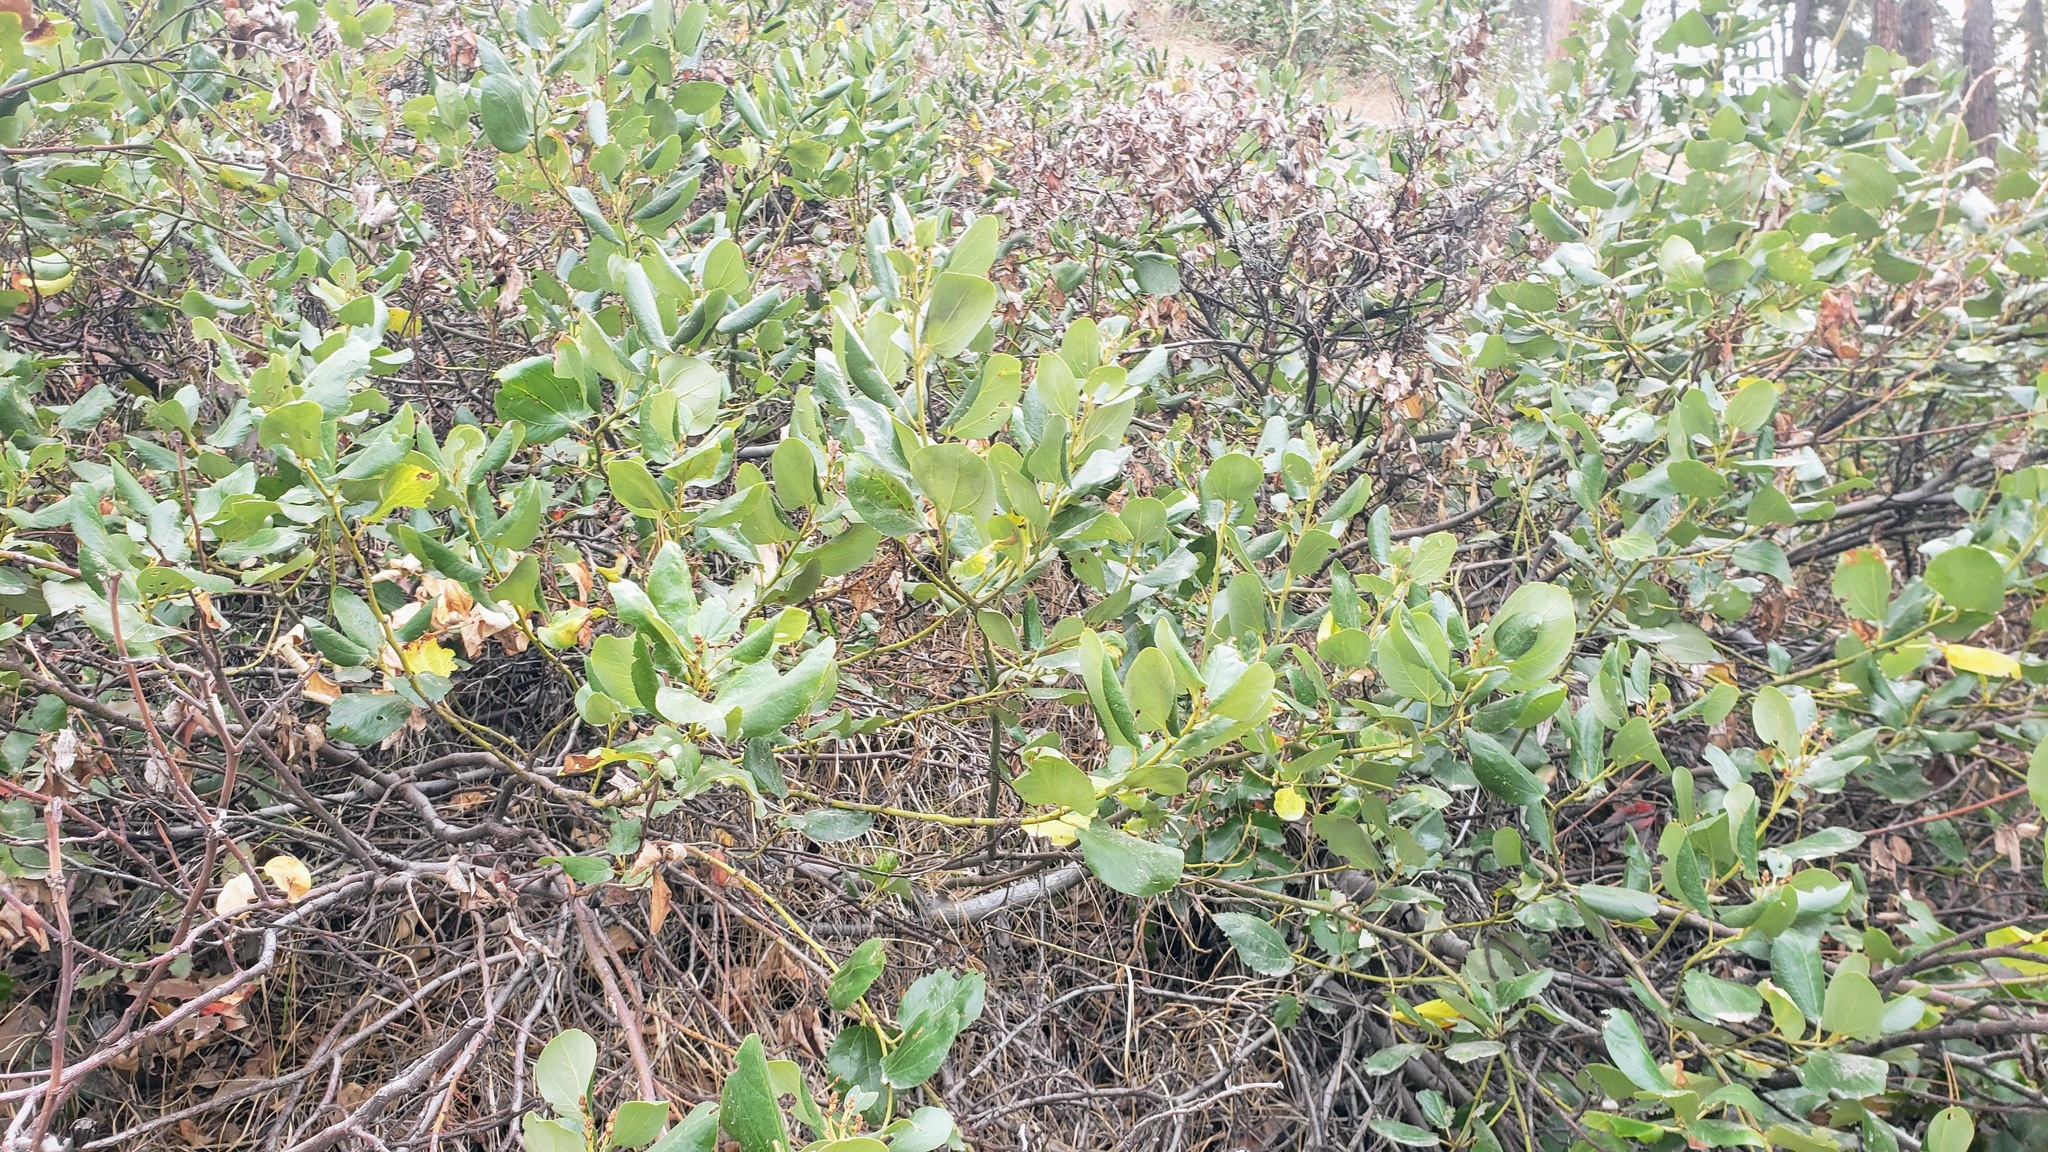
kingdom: Plantae
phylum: Tracheophyta
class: Magnoliopsida
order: Rosales
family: Rhamnaceae
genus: Ceanothus
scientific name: Ceanothus velutinus
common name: Snowbrush
